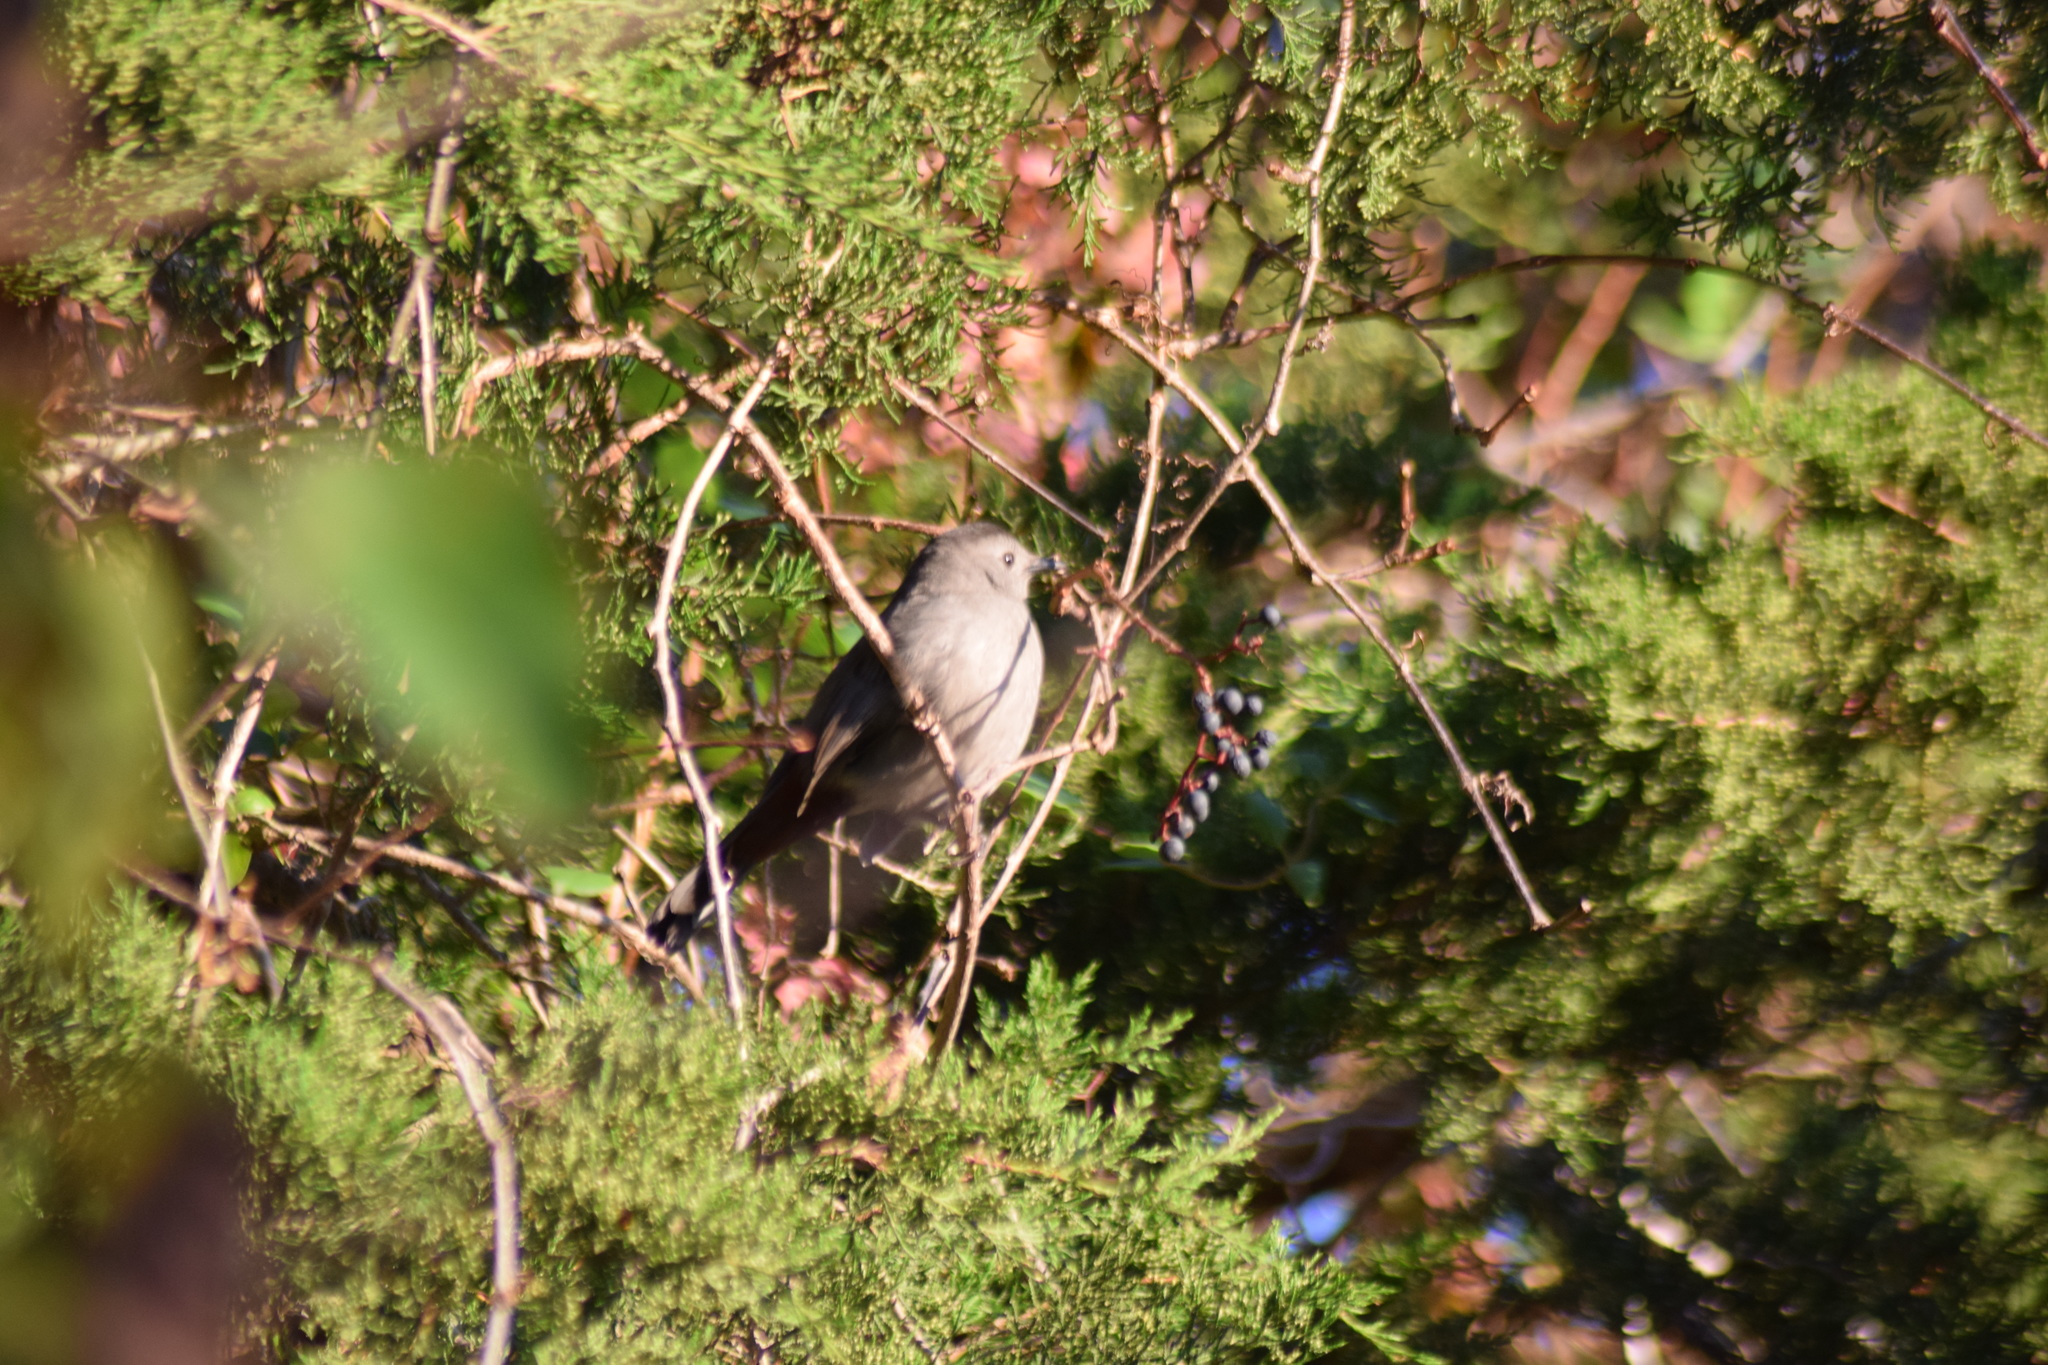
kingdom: Animalia
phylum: Chordata
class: Aves
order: Passeriformes
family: Mimidae
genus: Dumetella
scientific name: Dumetella carolinensis
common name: Gray catbird
